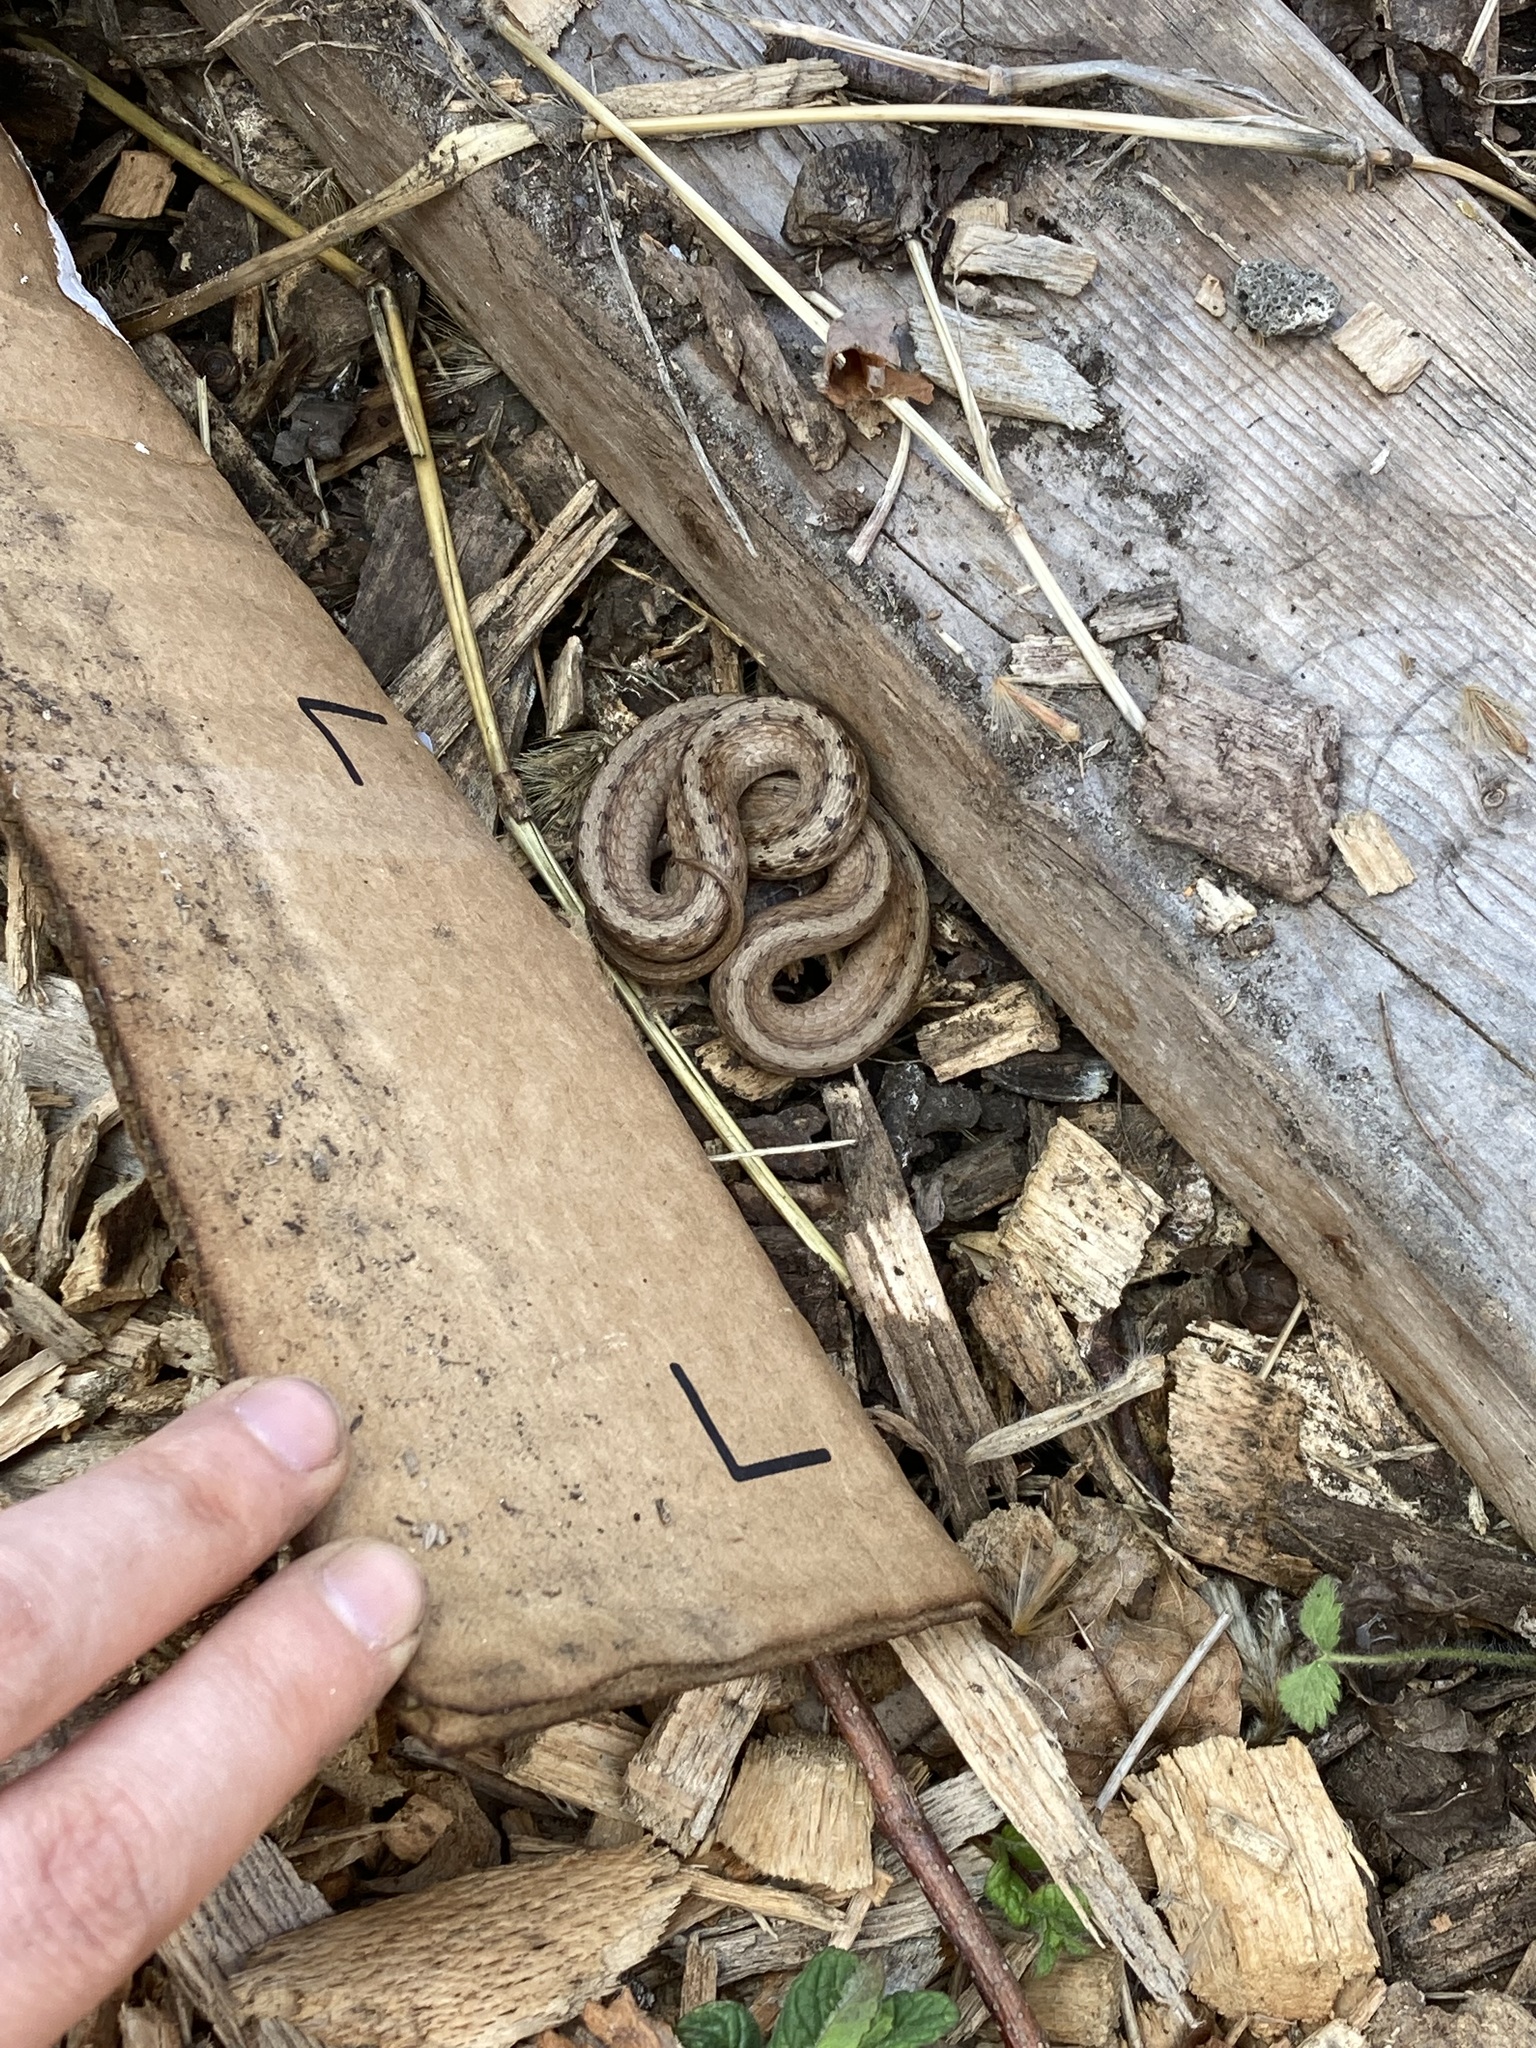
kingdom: Animalia
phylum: Chordata
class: Squamata
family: Colubridae
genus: Storeria
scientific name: Storeria dekayi
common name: (dekay’s) brown snake
